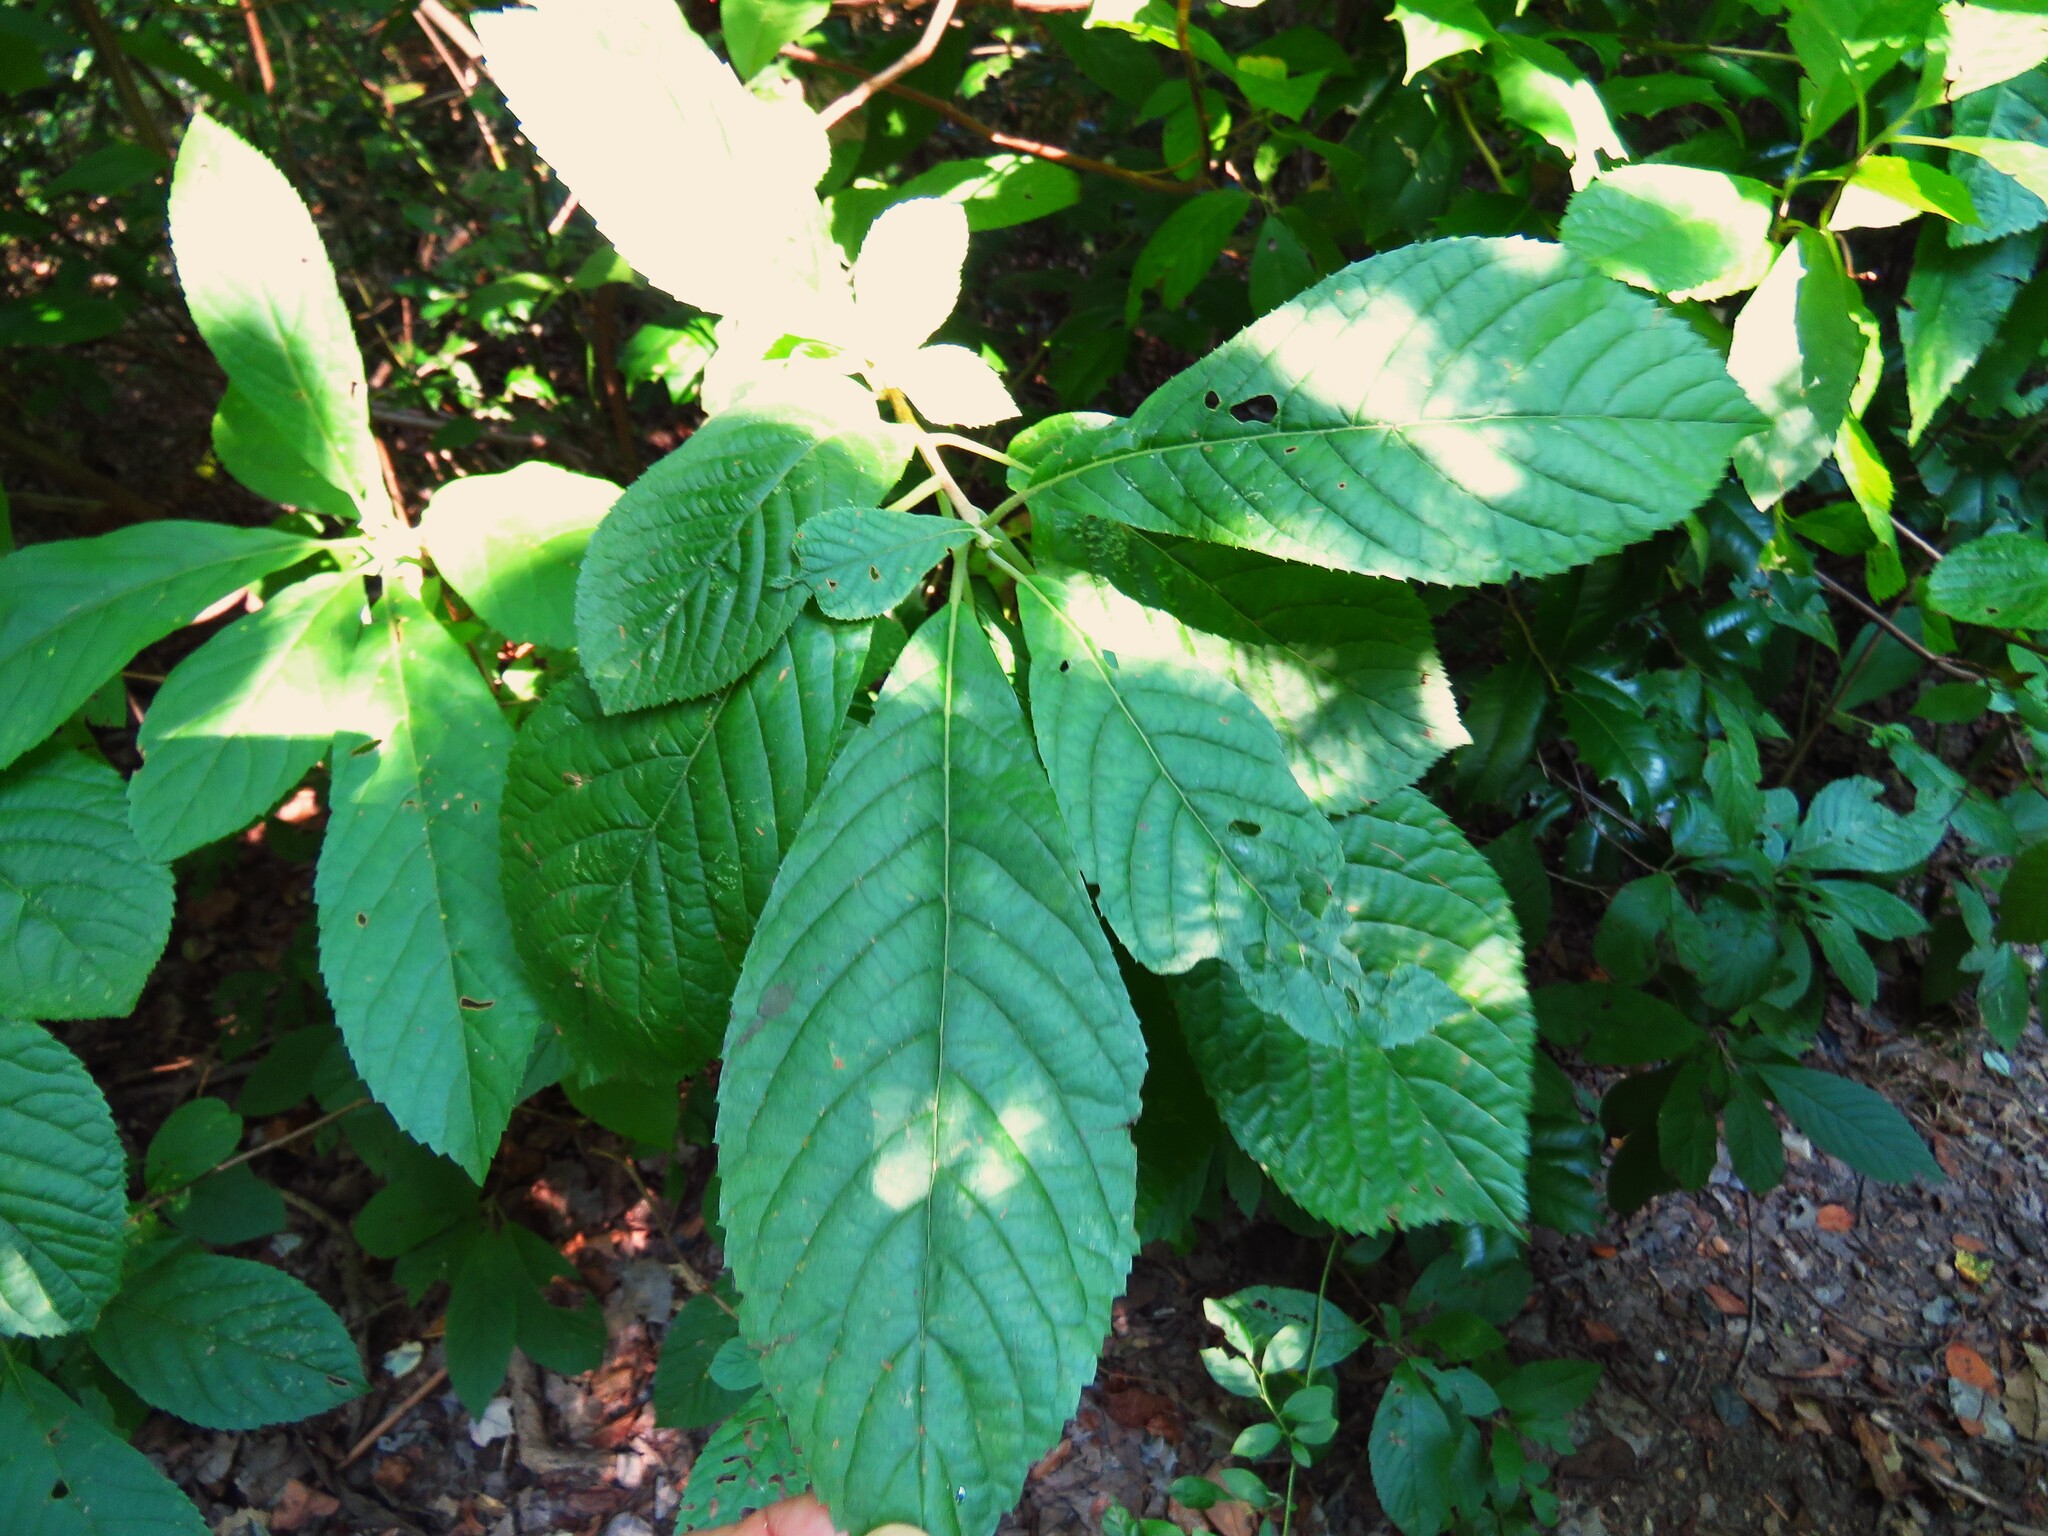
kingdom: Plantae
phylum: Tracheophyta
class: Magnoliopsida
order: Ericales
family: Clethraceae
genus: Clethra
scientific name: Clethra alnifolia
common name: Sweet pepperbush
